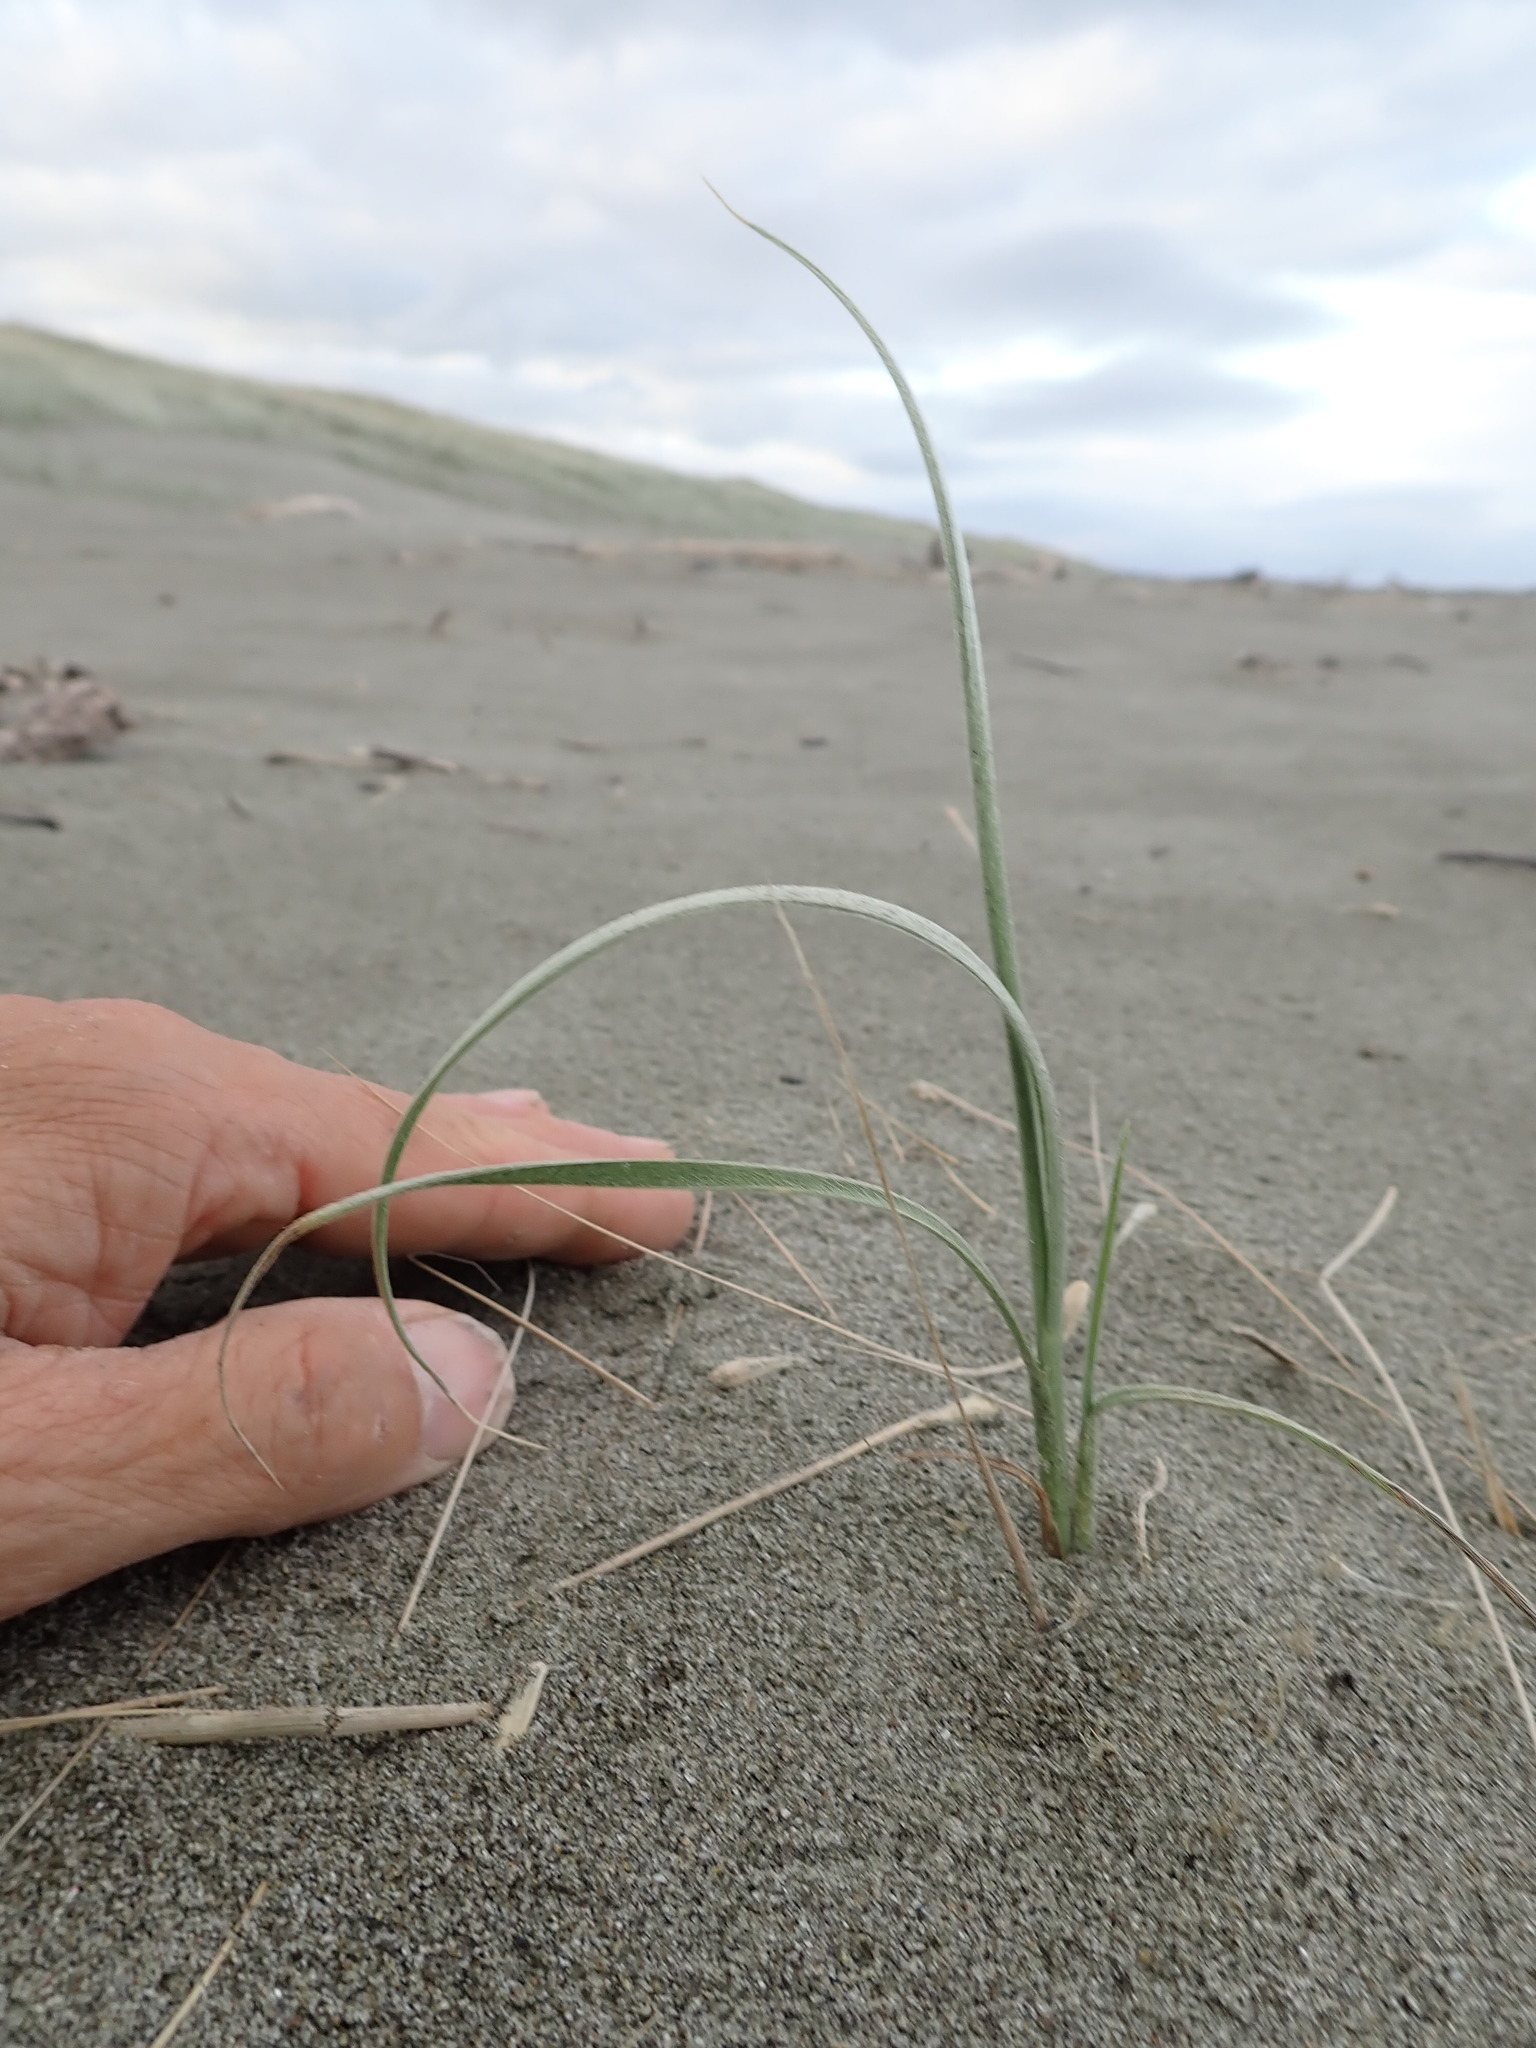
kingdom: Plantae
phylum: Tracheophyta
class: Liliopsida
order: Poales
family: Poaceae
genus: Spinifex
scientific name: Spinifex sericeus
